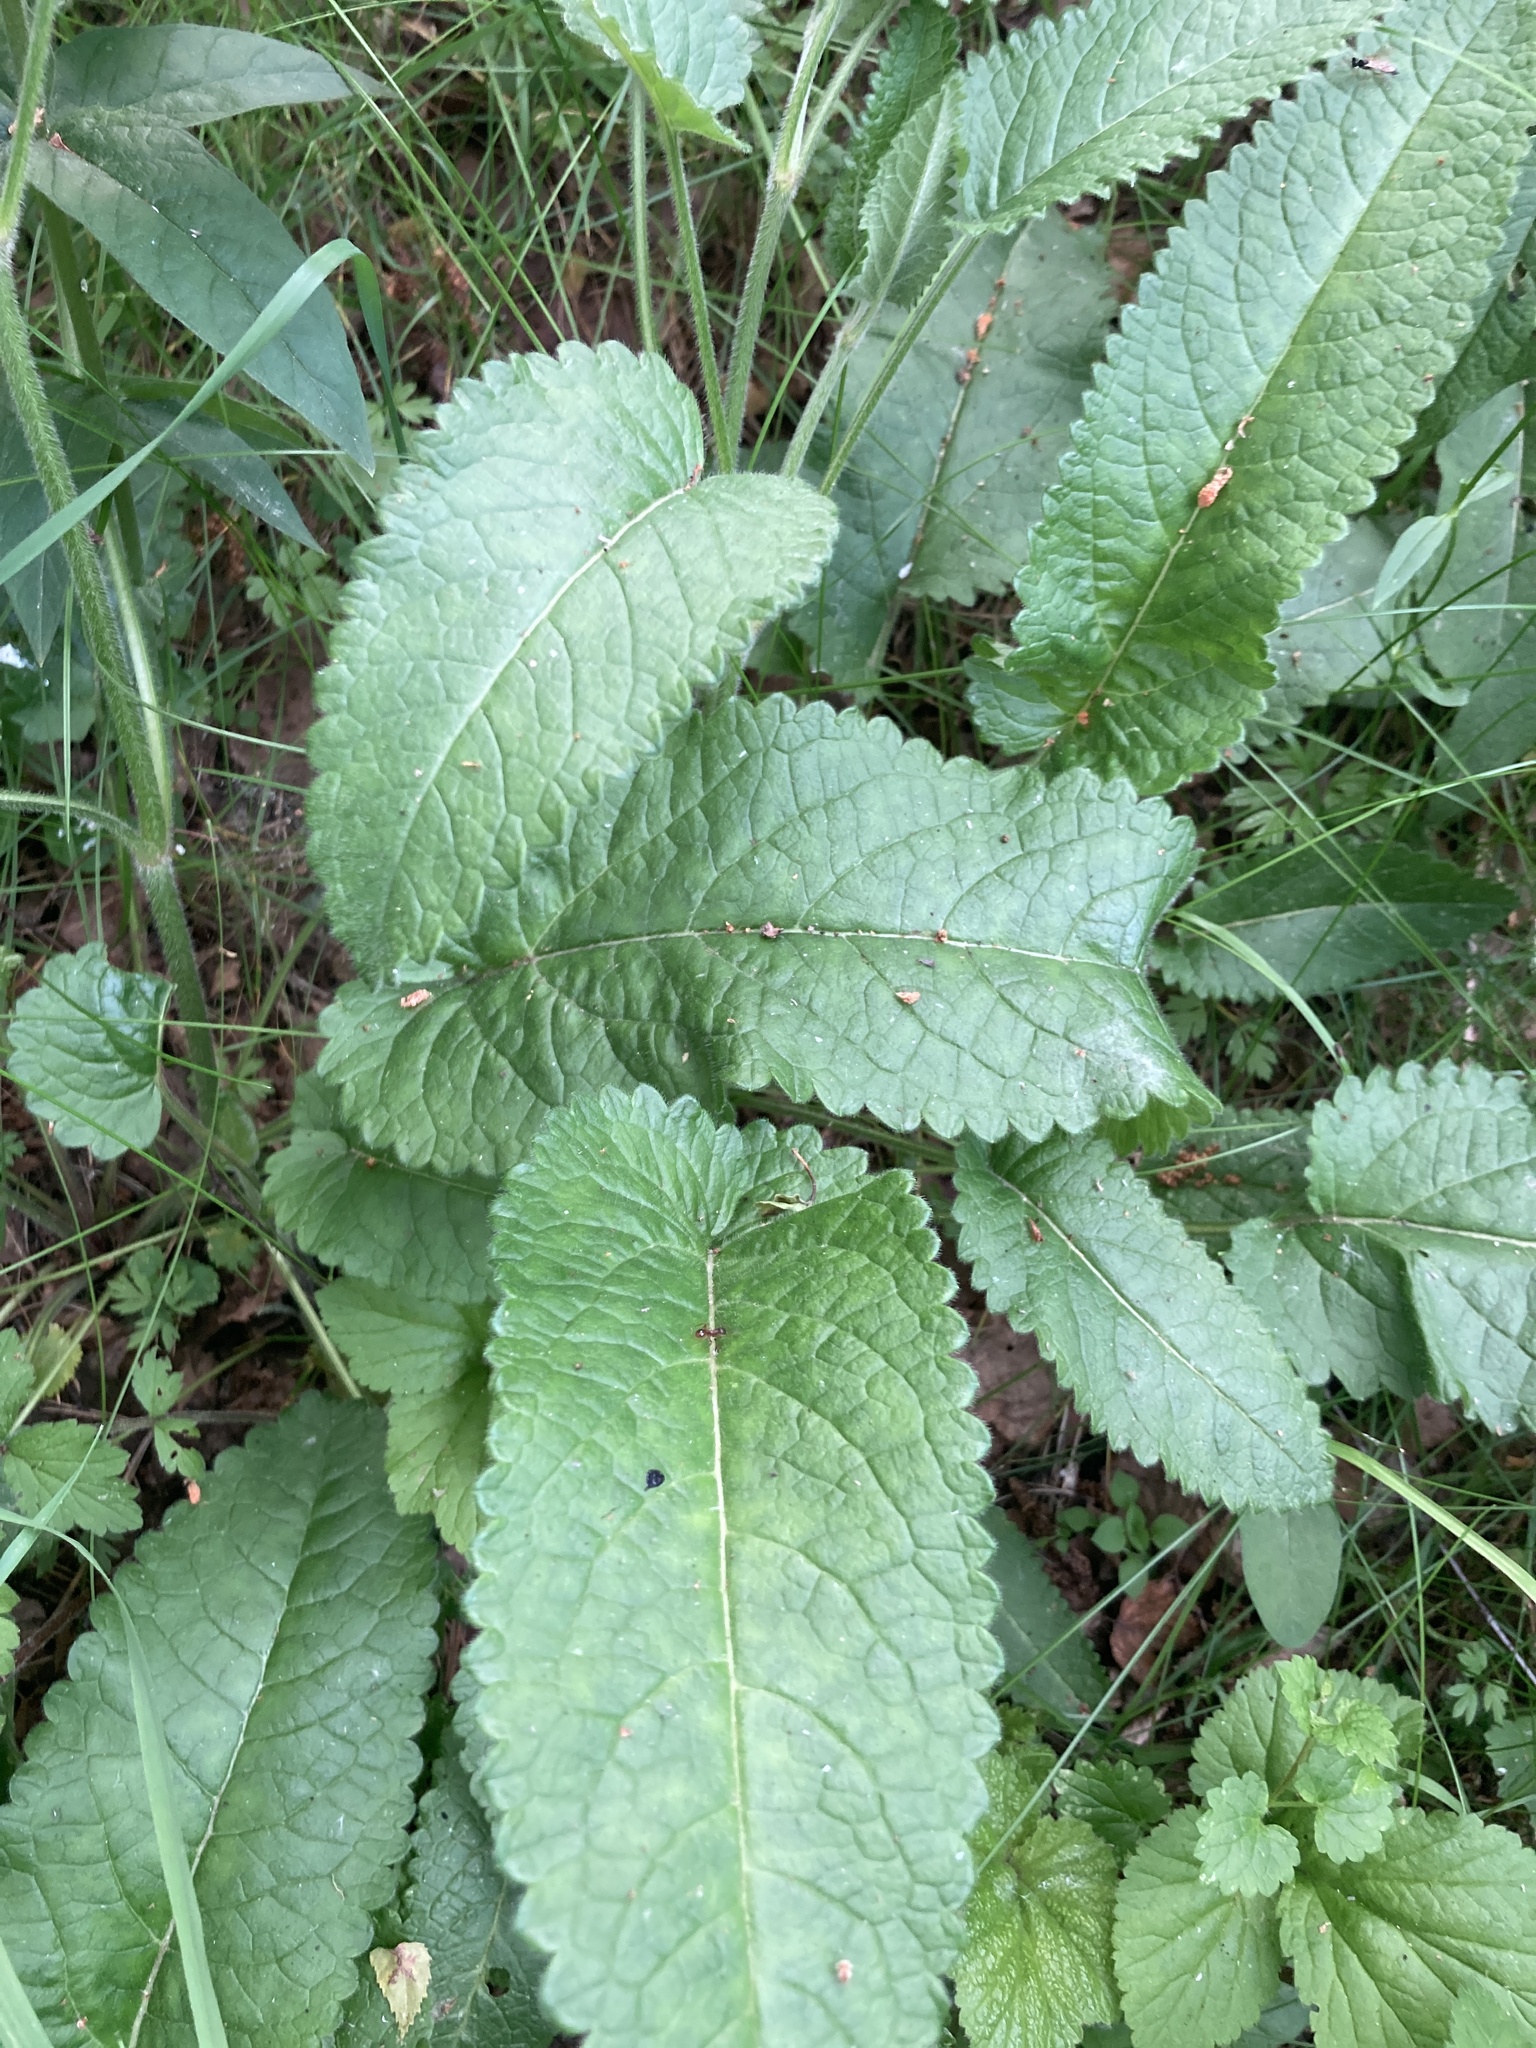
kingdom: Plantae
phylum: Tracheophyta
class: Magnoliopsida
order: Lamiales
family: Lamiaceae
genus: Betonica
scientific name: Betonica officinalis
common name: Bishop's-wort
